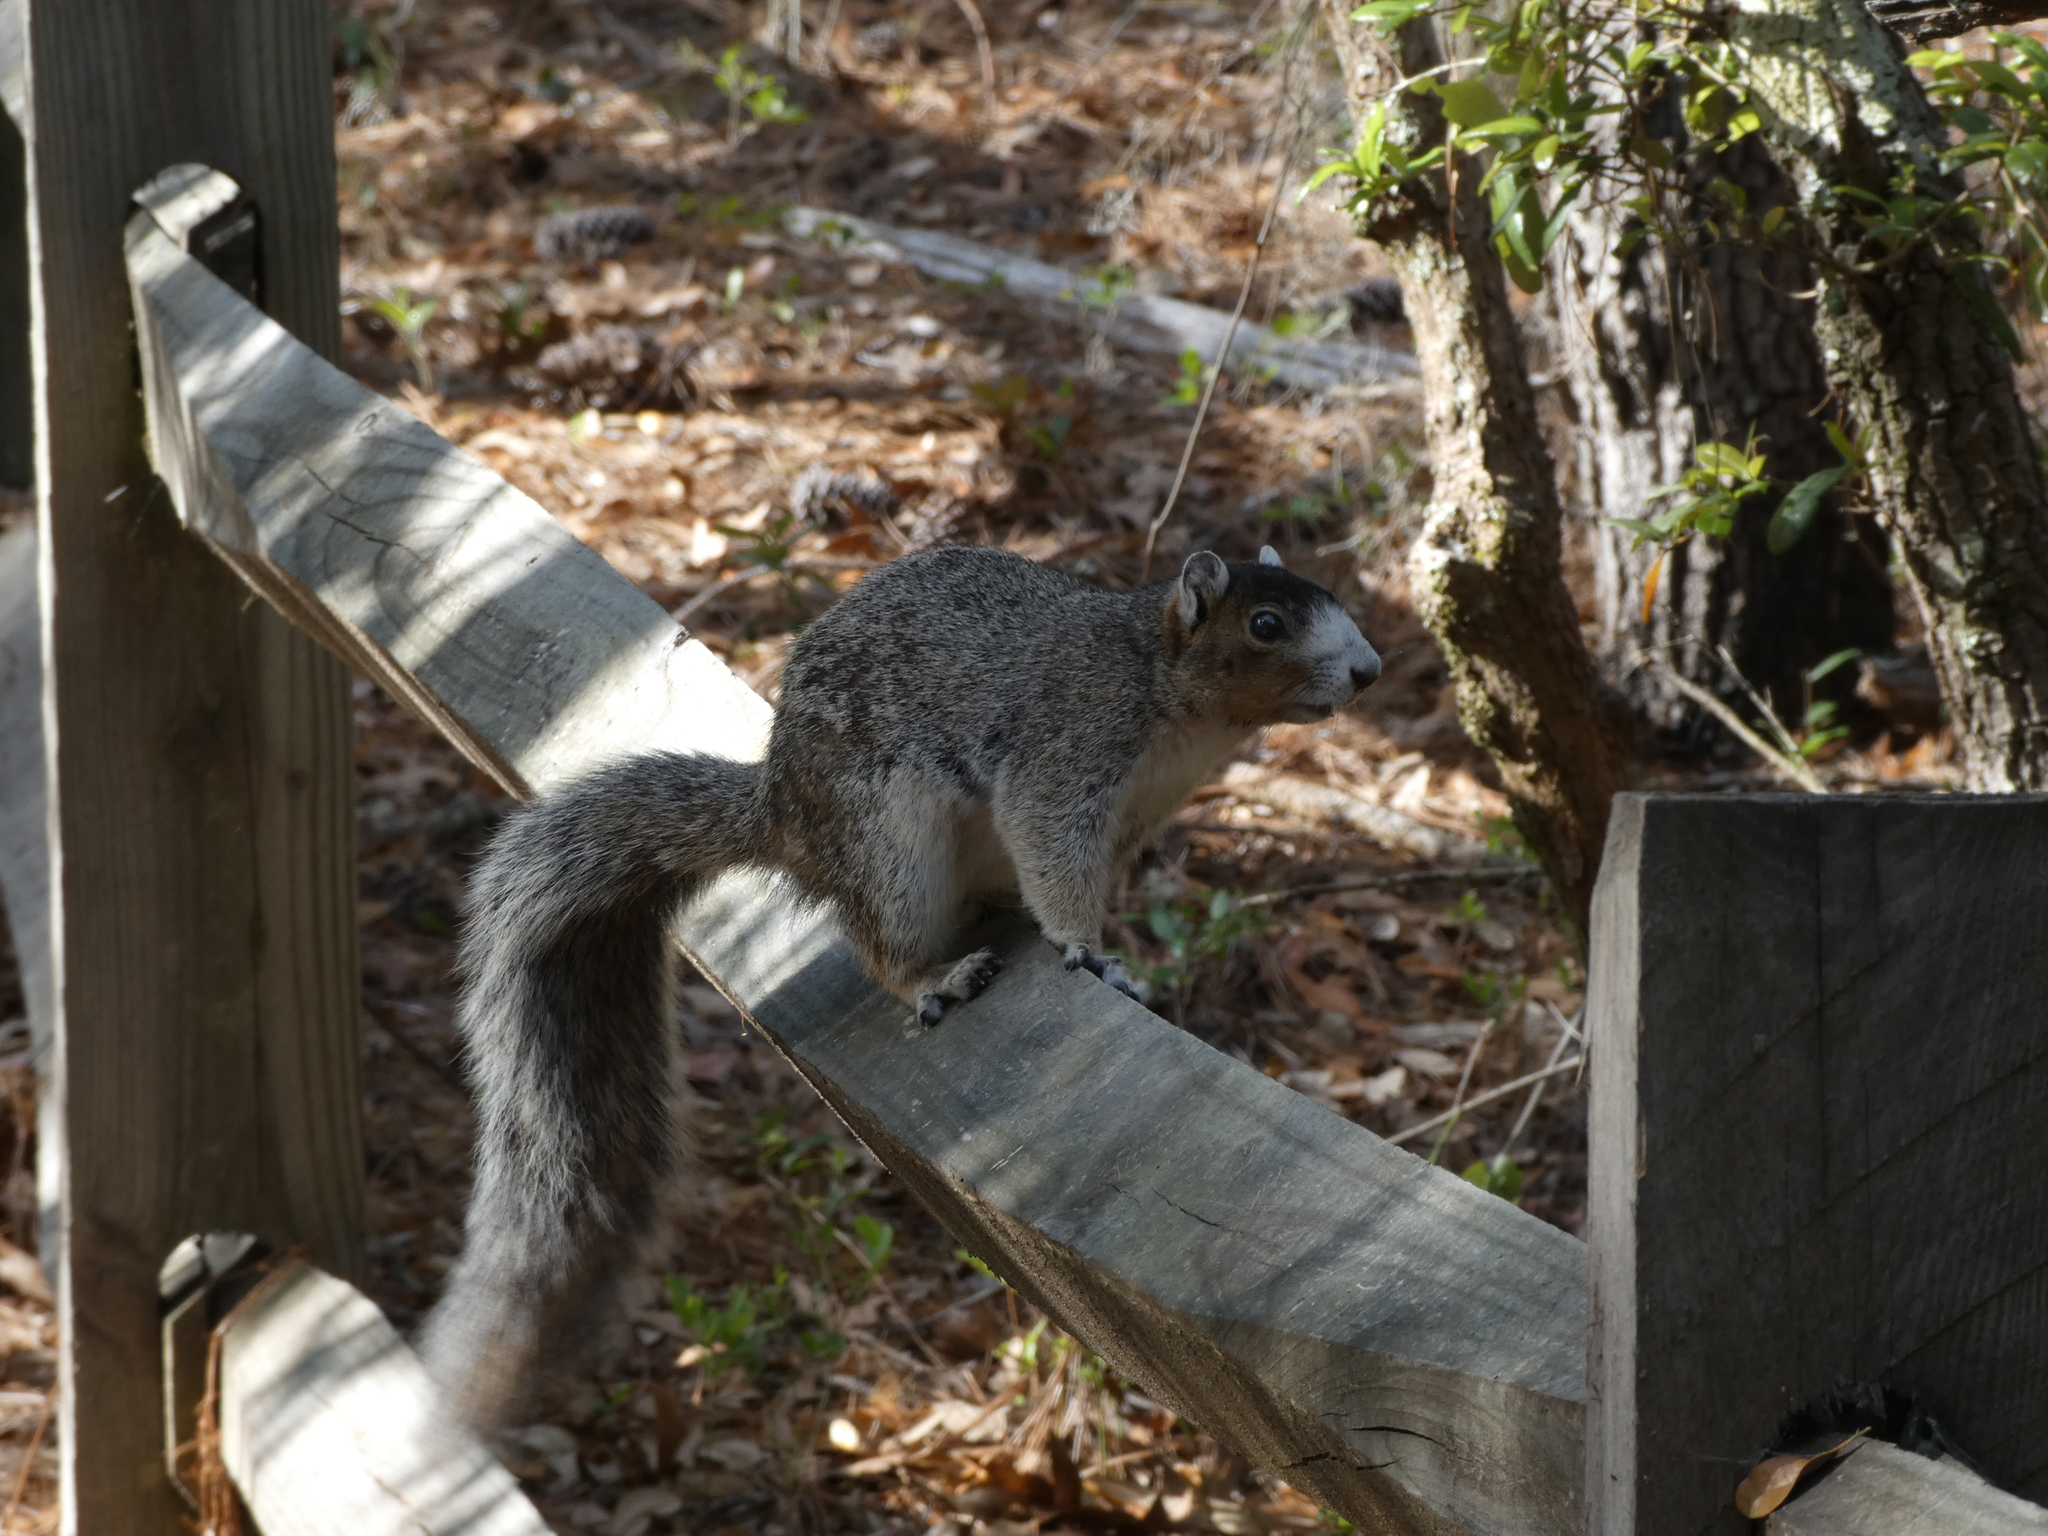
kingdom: Animalia
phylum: Chordata
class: Mammalia
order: Rodentia
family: Sciuridae
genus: Sciurus
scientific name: Sciurus niger
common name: Fox squirrel
